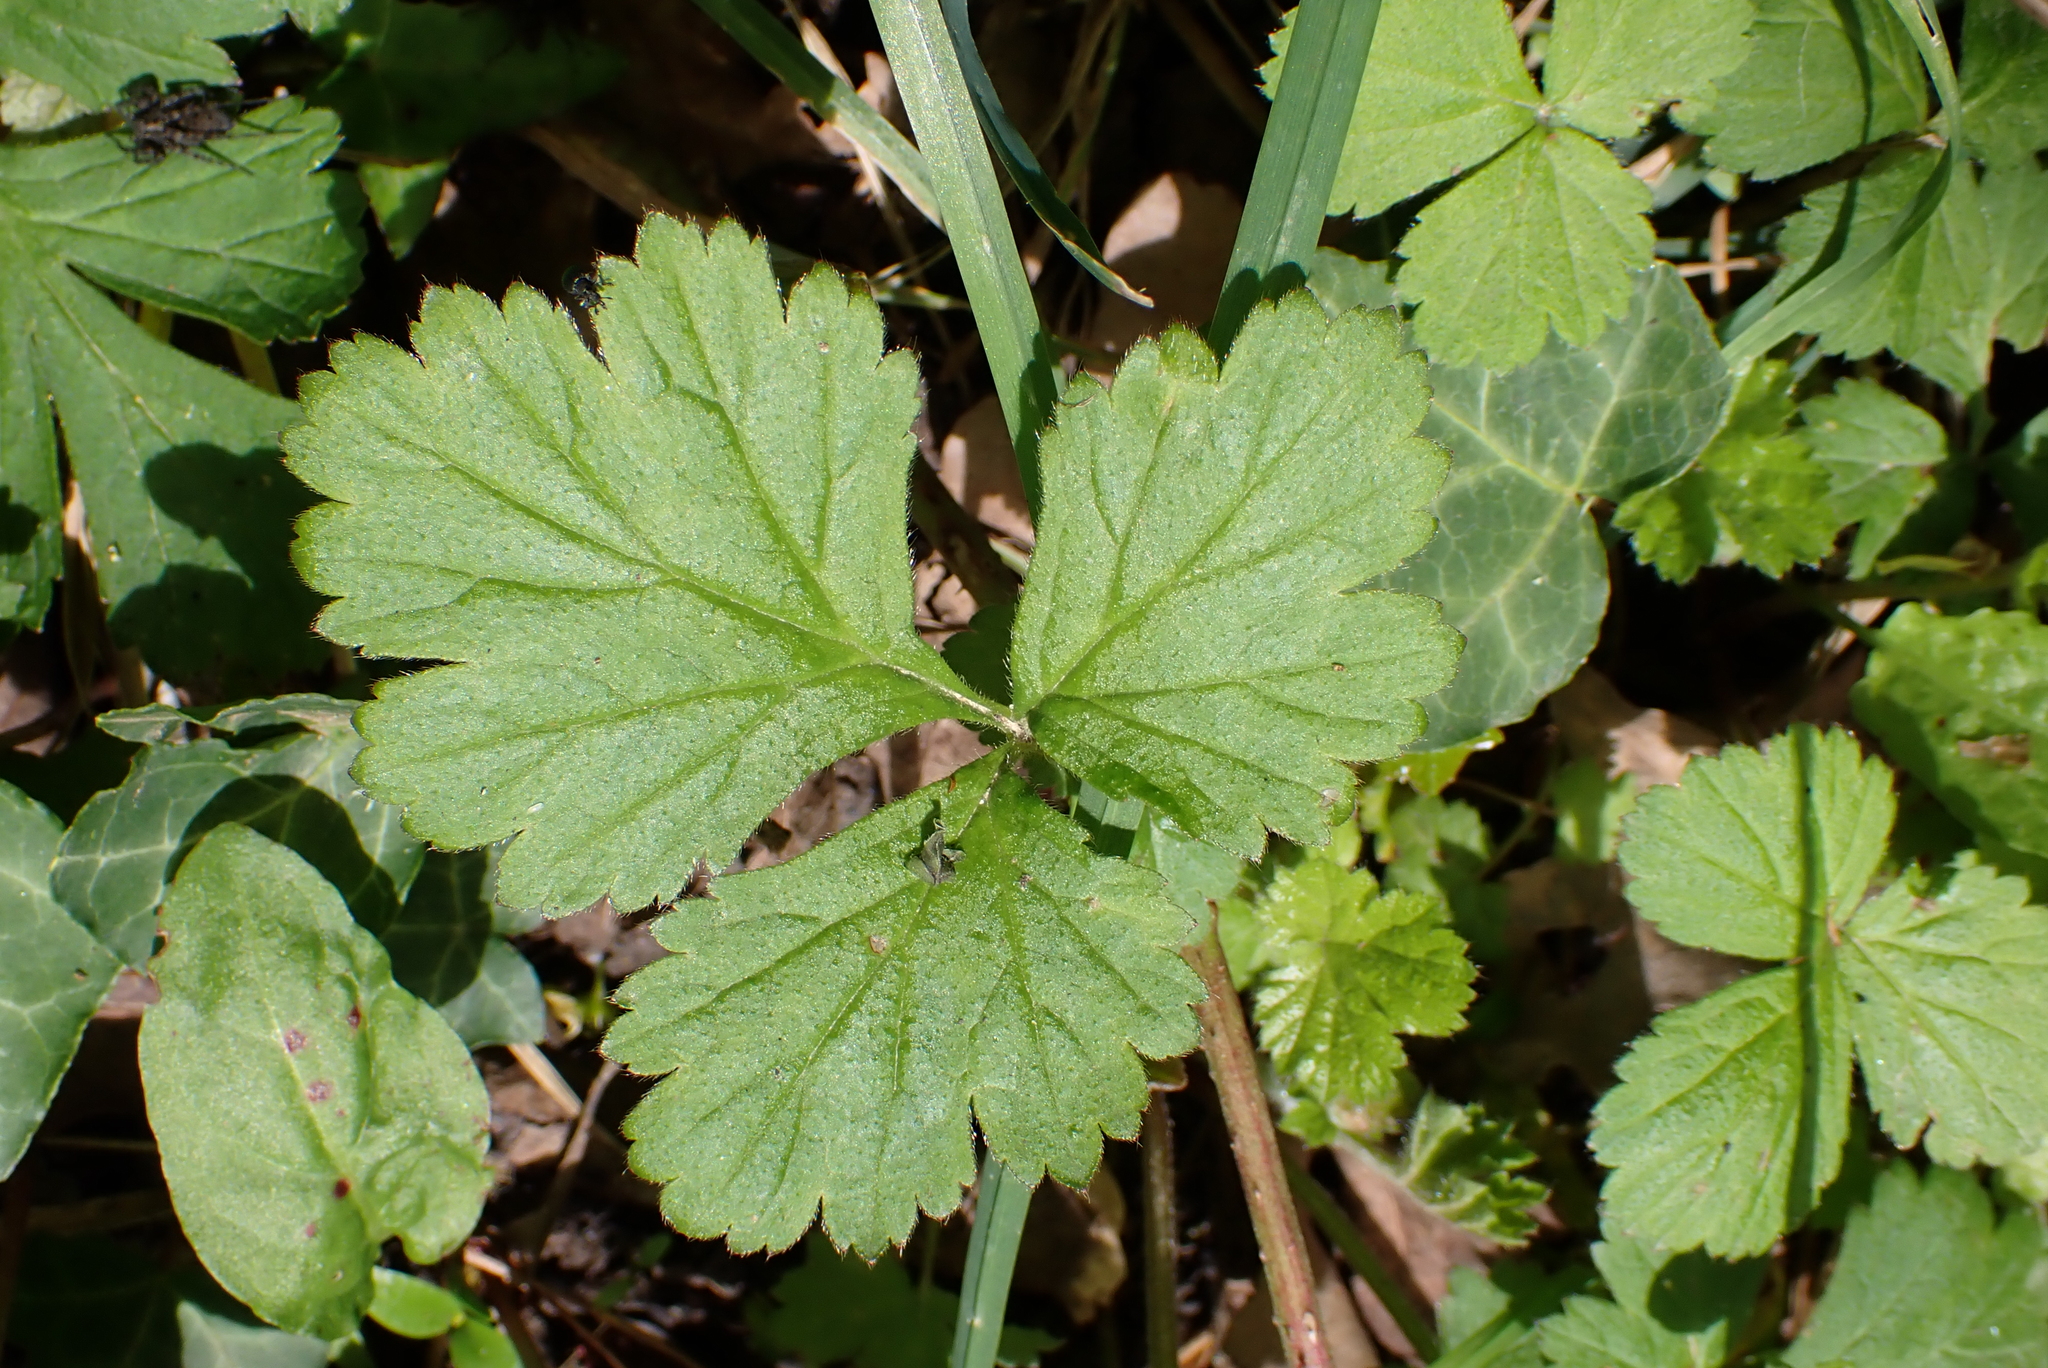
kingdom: Plantae
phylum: Tracheophyta
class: Magnoliopsida
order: Rosales
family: Rosaceae
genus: Geum
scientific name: Geum urbanum
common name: Wood avens
